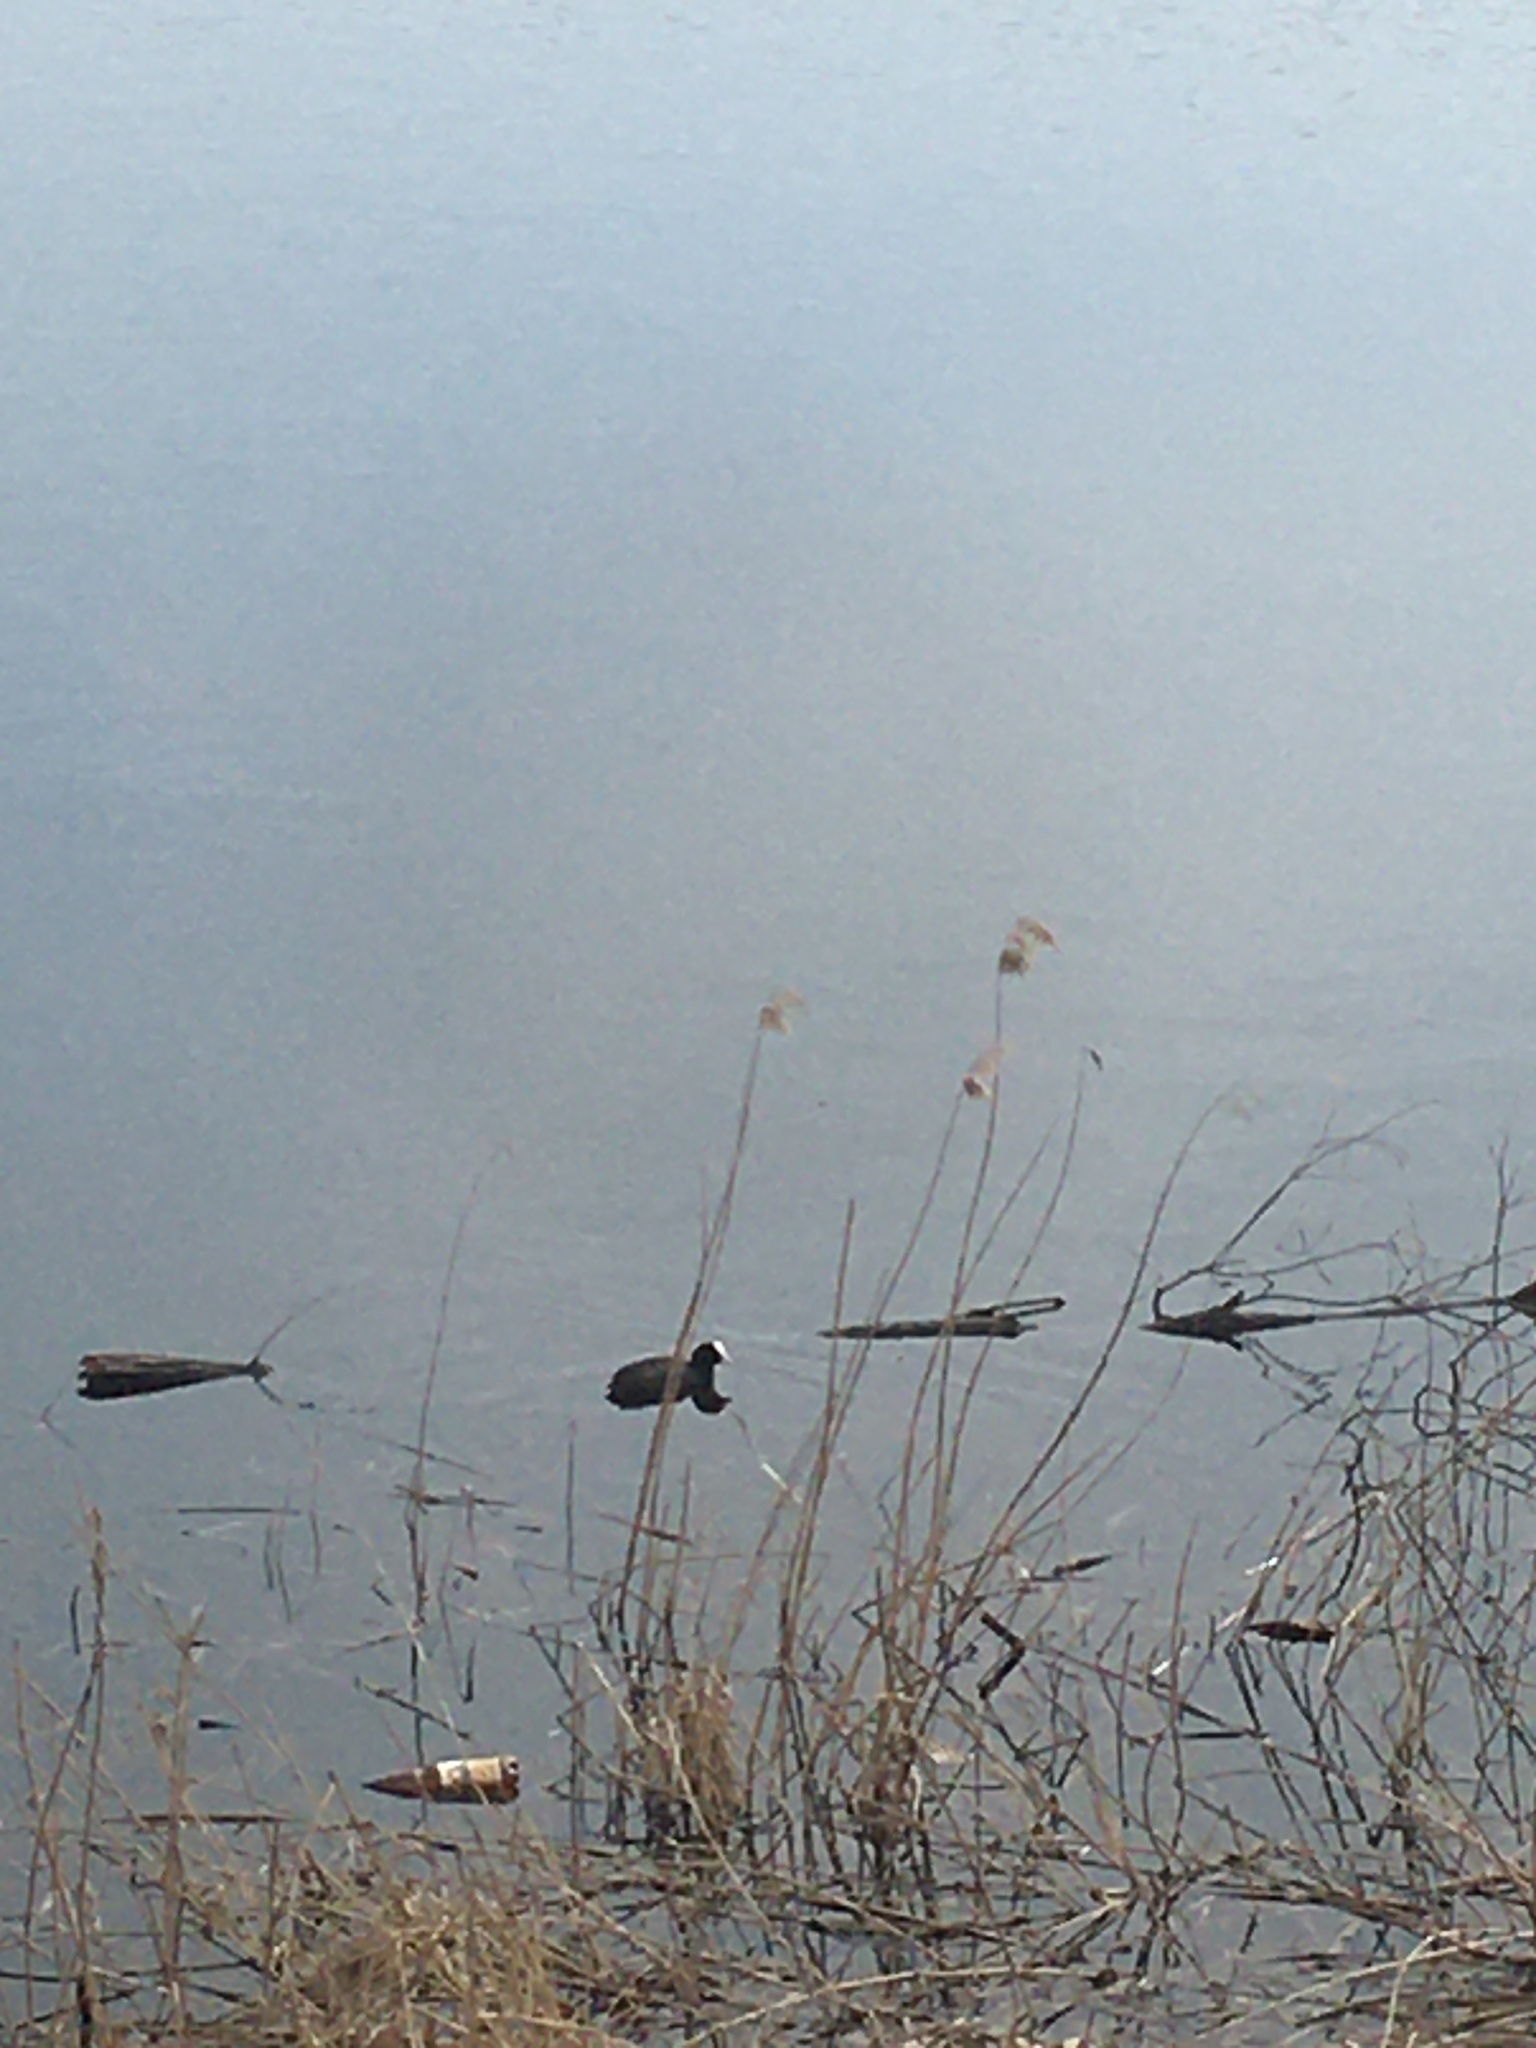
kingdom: Animalia
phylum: Chordata
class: Aves
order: Gruiformes
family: Rallidae
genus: Fulica
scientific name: Fulica atra
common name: Eurasian coot
